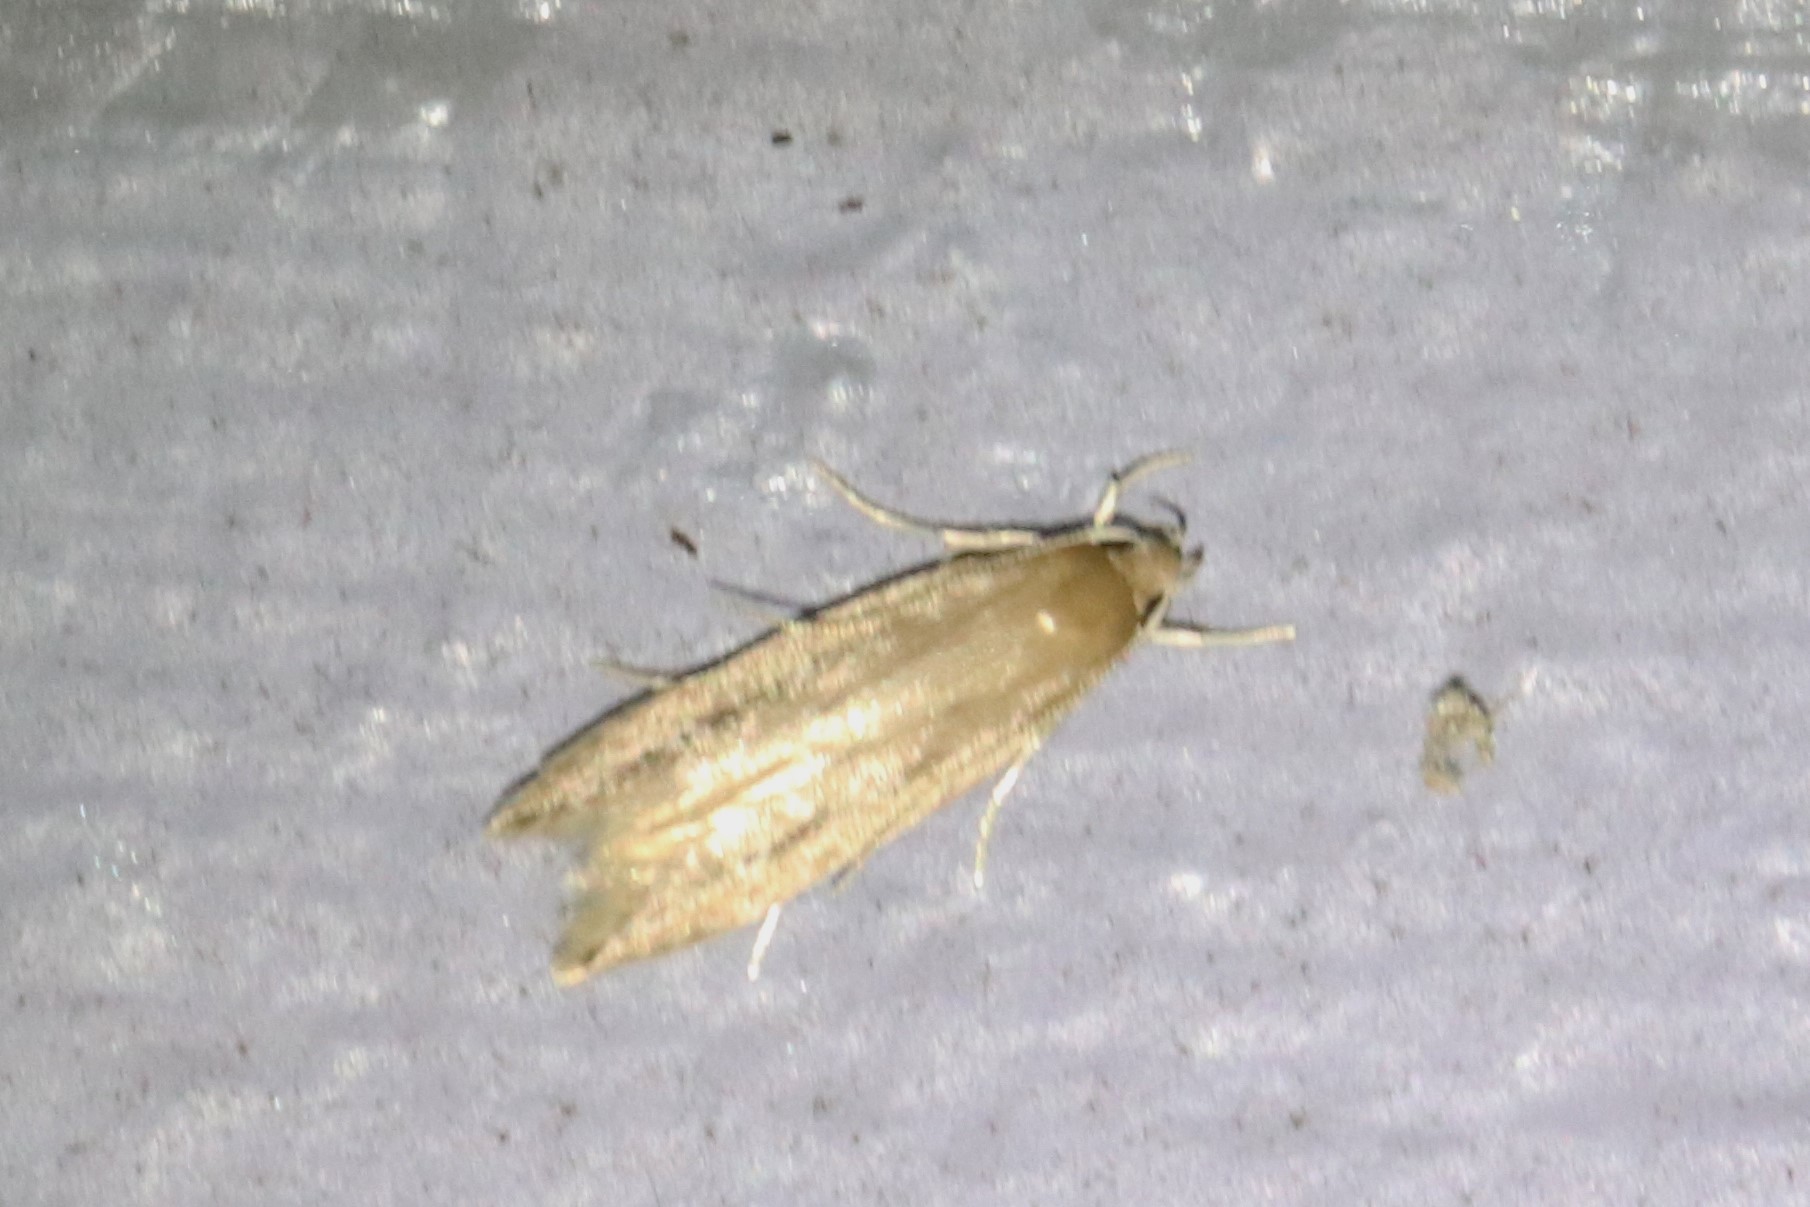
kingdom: Animalia
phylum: Arthropoda
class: Insecta
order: Lepidoptera
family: Cosmopterigidae
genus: Limnaecia
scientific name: Limnaecia phragmitella
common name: Bulrush cosmet
